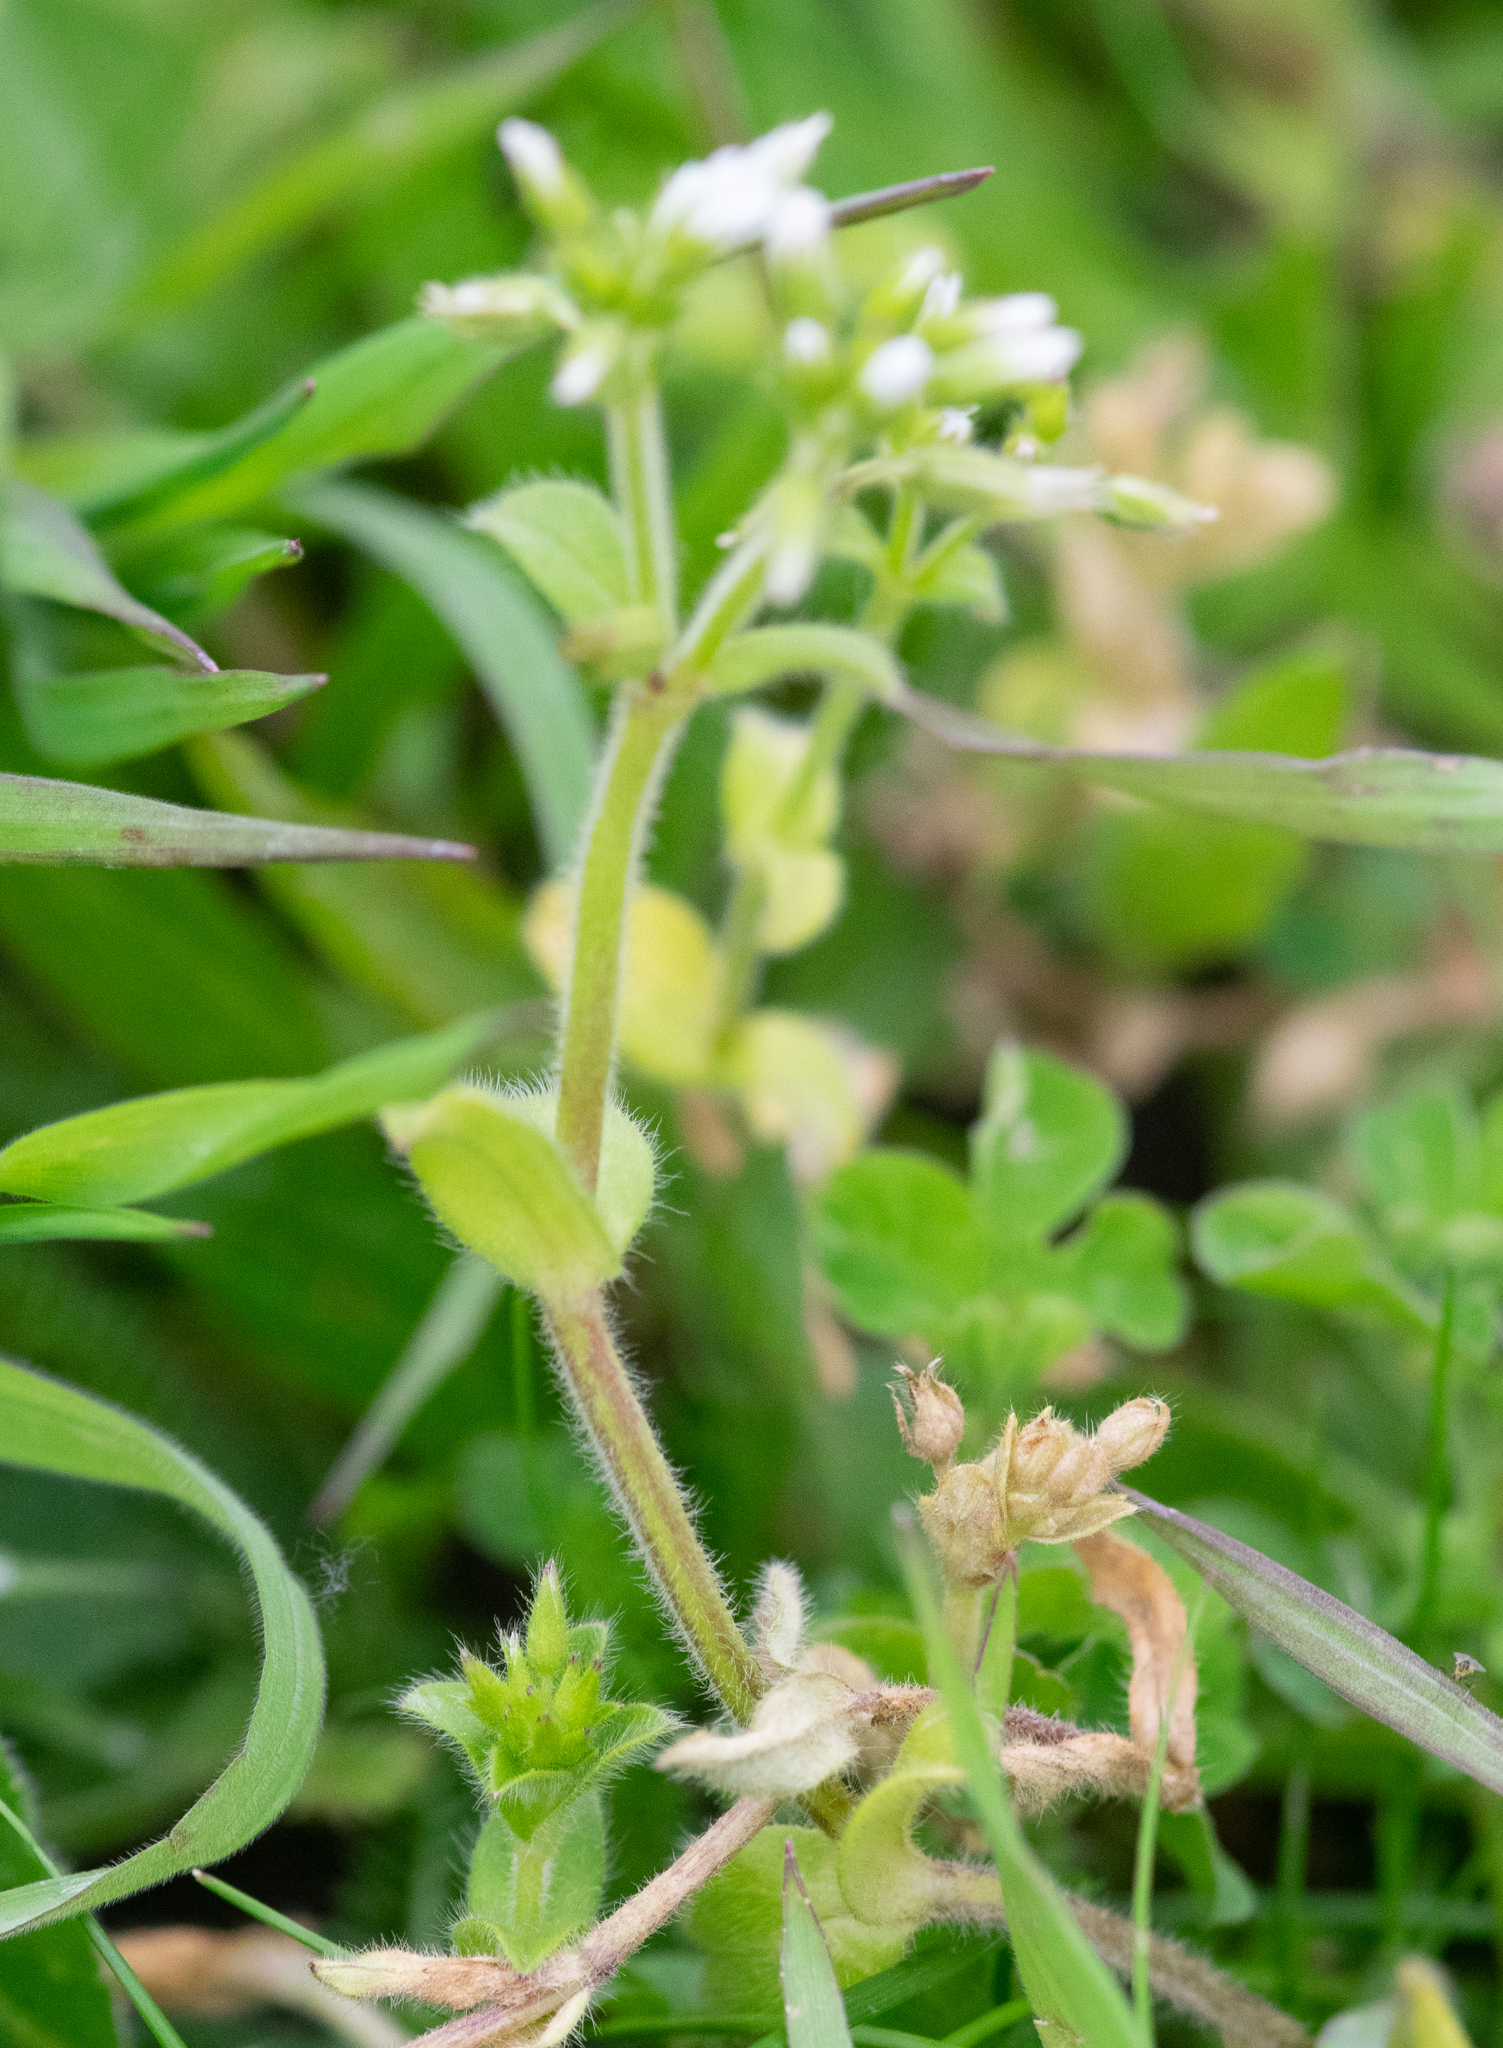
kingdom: Plantae
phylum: Tracheophyta
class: Magnoliopsida
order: Caryophyllales
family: Caryophyllaceae
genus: Cerastium
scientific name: Cerastium fontanum
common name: Common mouse-ear
